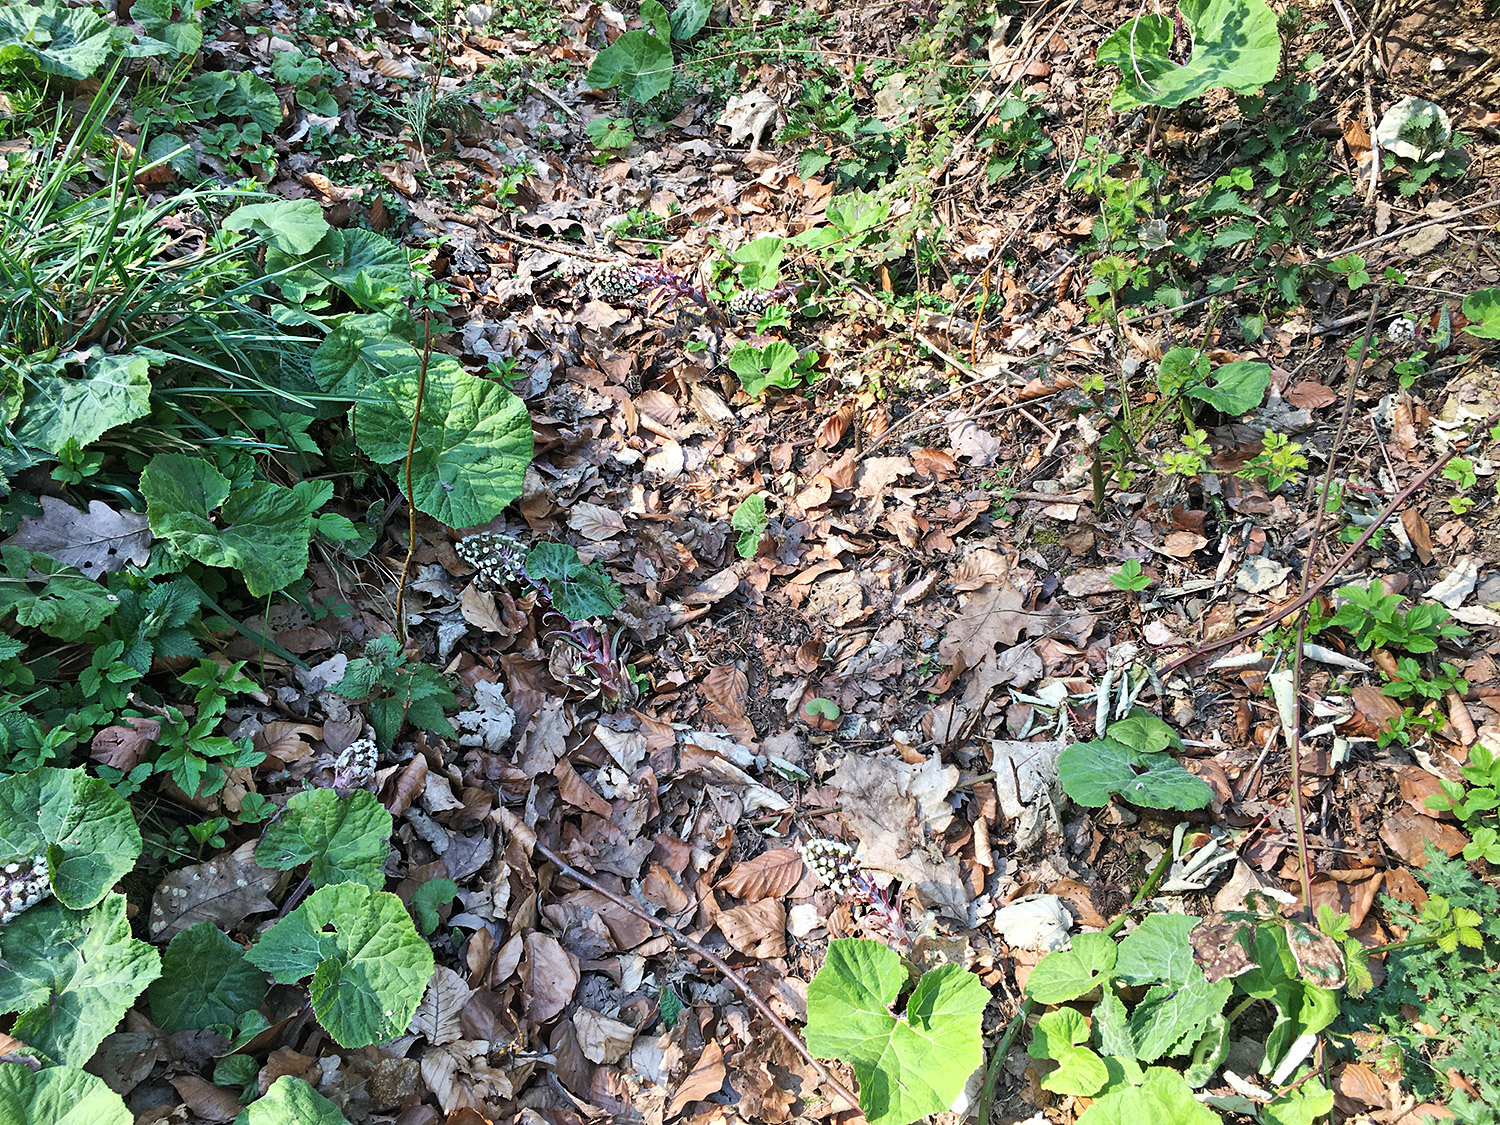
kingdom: Plantae
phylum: Tracheophyta
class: Magnoliopsida
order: Asterales
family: Asteraceae
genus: Petasites
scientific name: Petasites hybridus
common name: Butterbur
